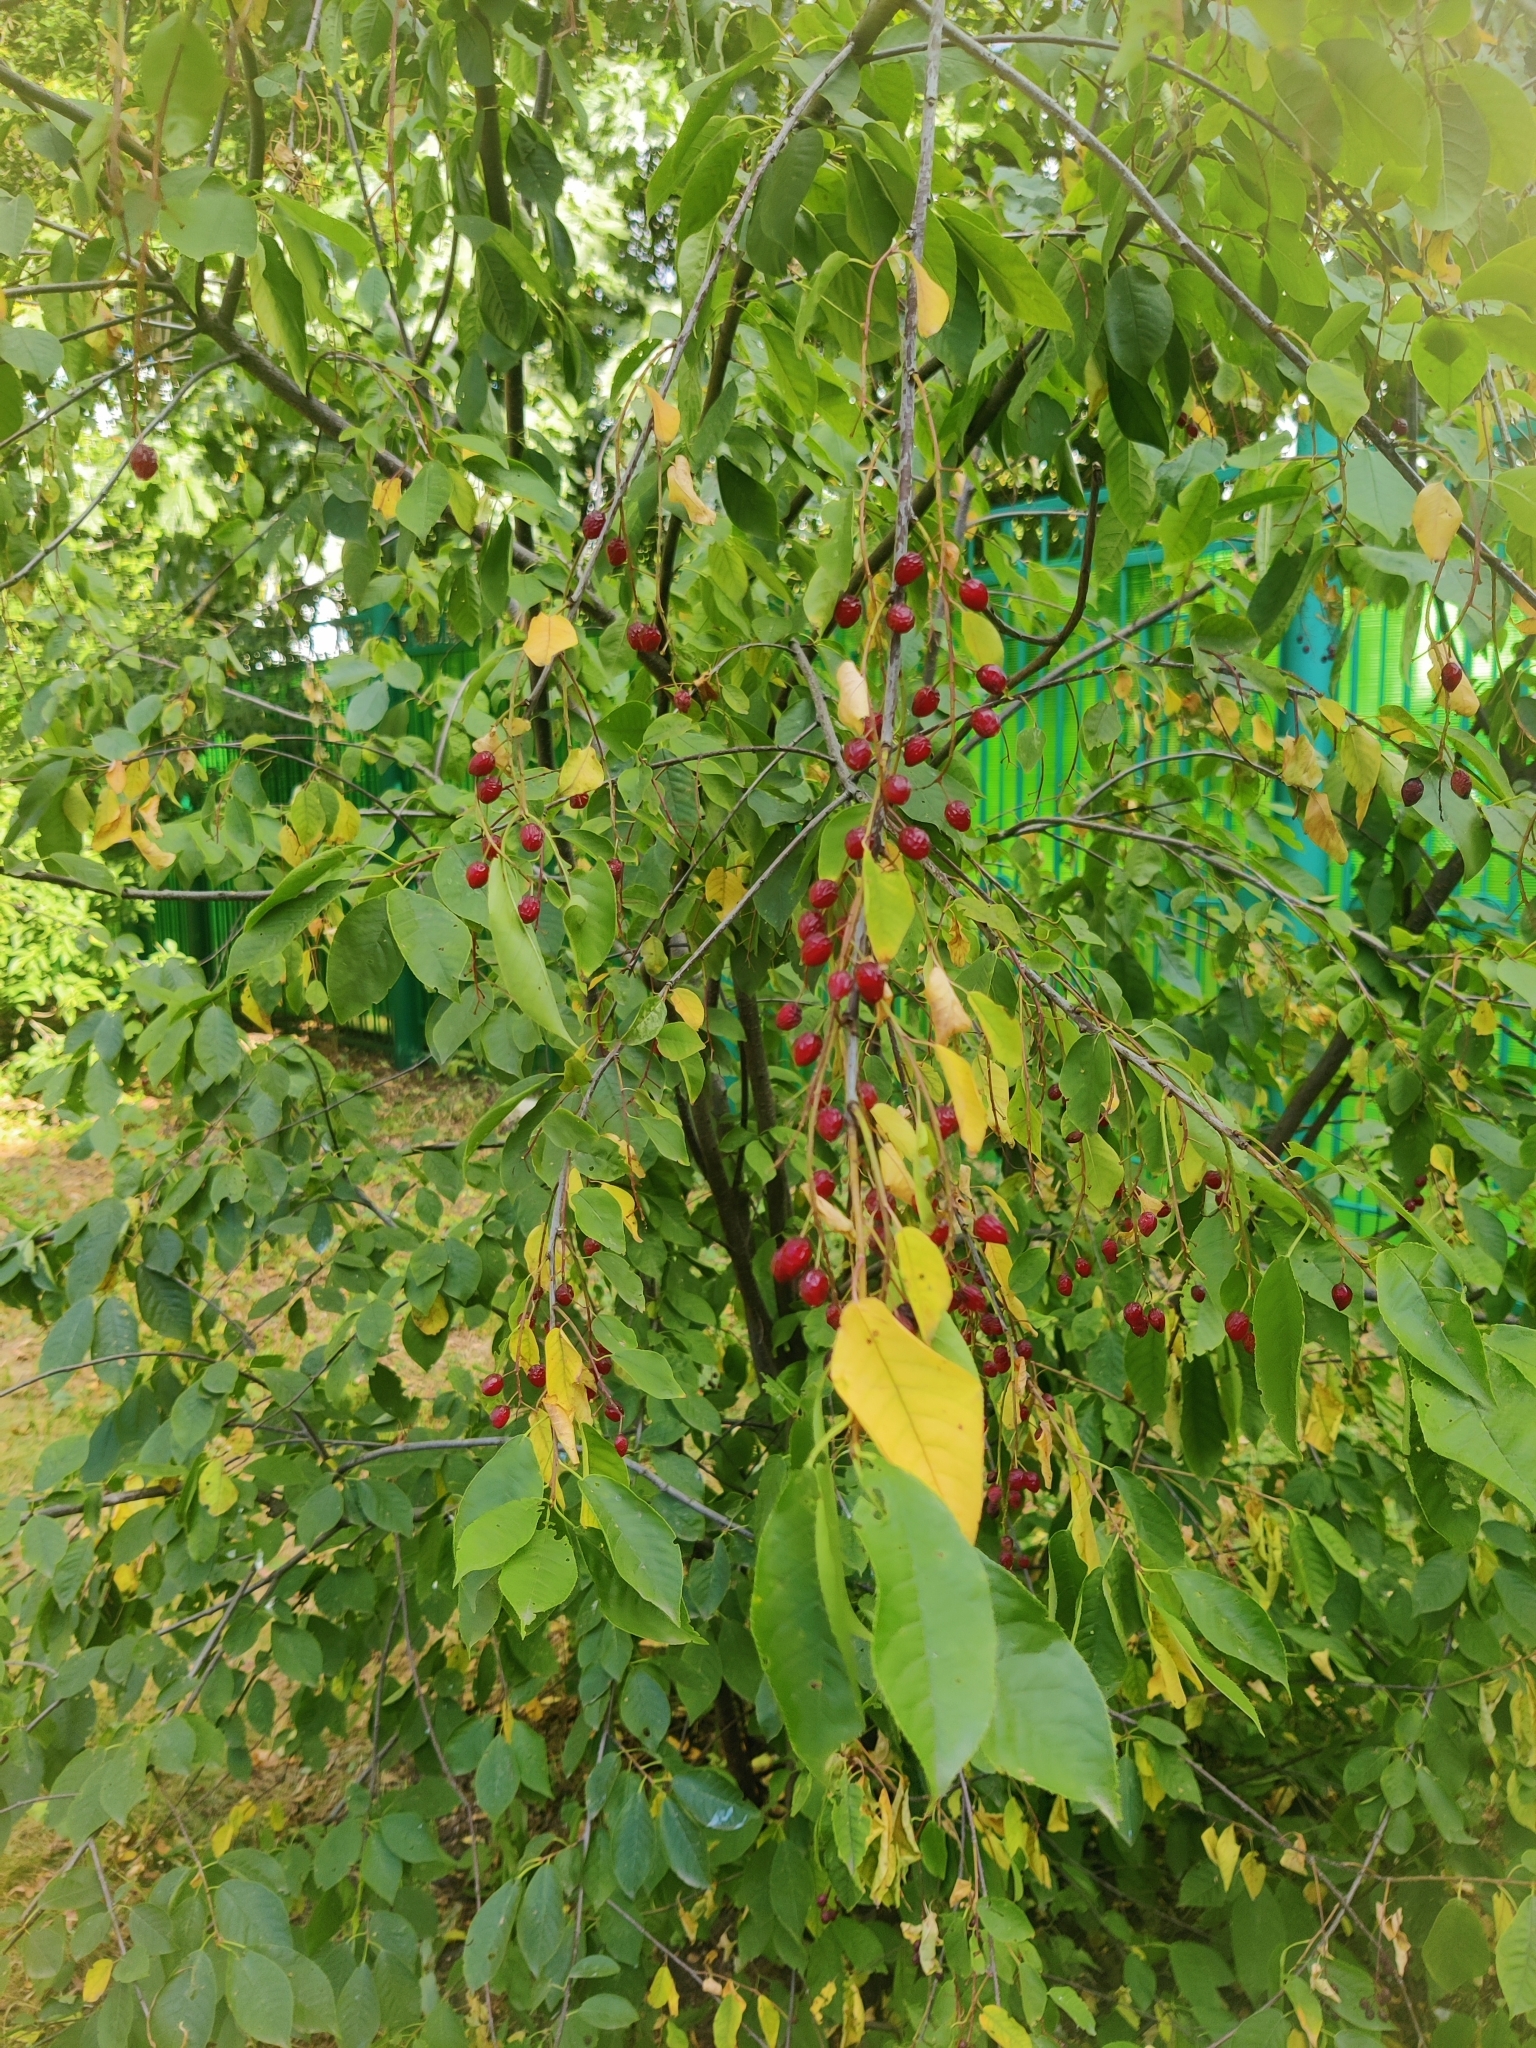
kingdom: Plantae
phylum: Tracheophyta
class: Magnoliopsida
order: Rosales
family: Rosaceae
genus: Prunus
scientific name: Prunus virginiana
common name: Chokecherry
